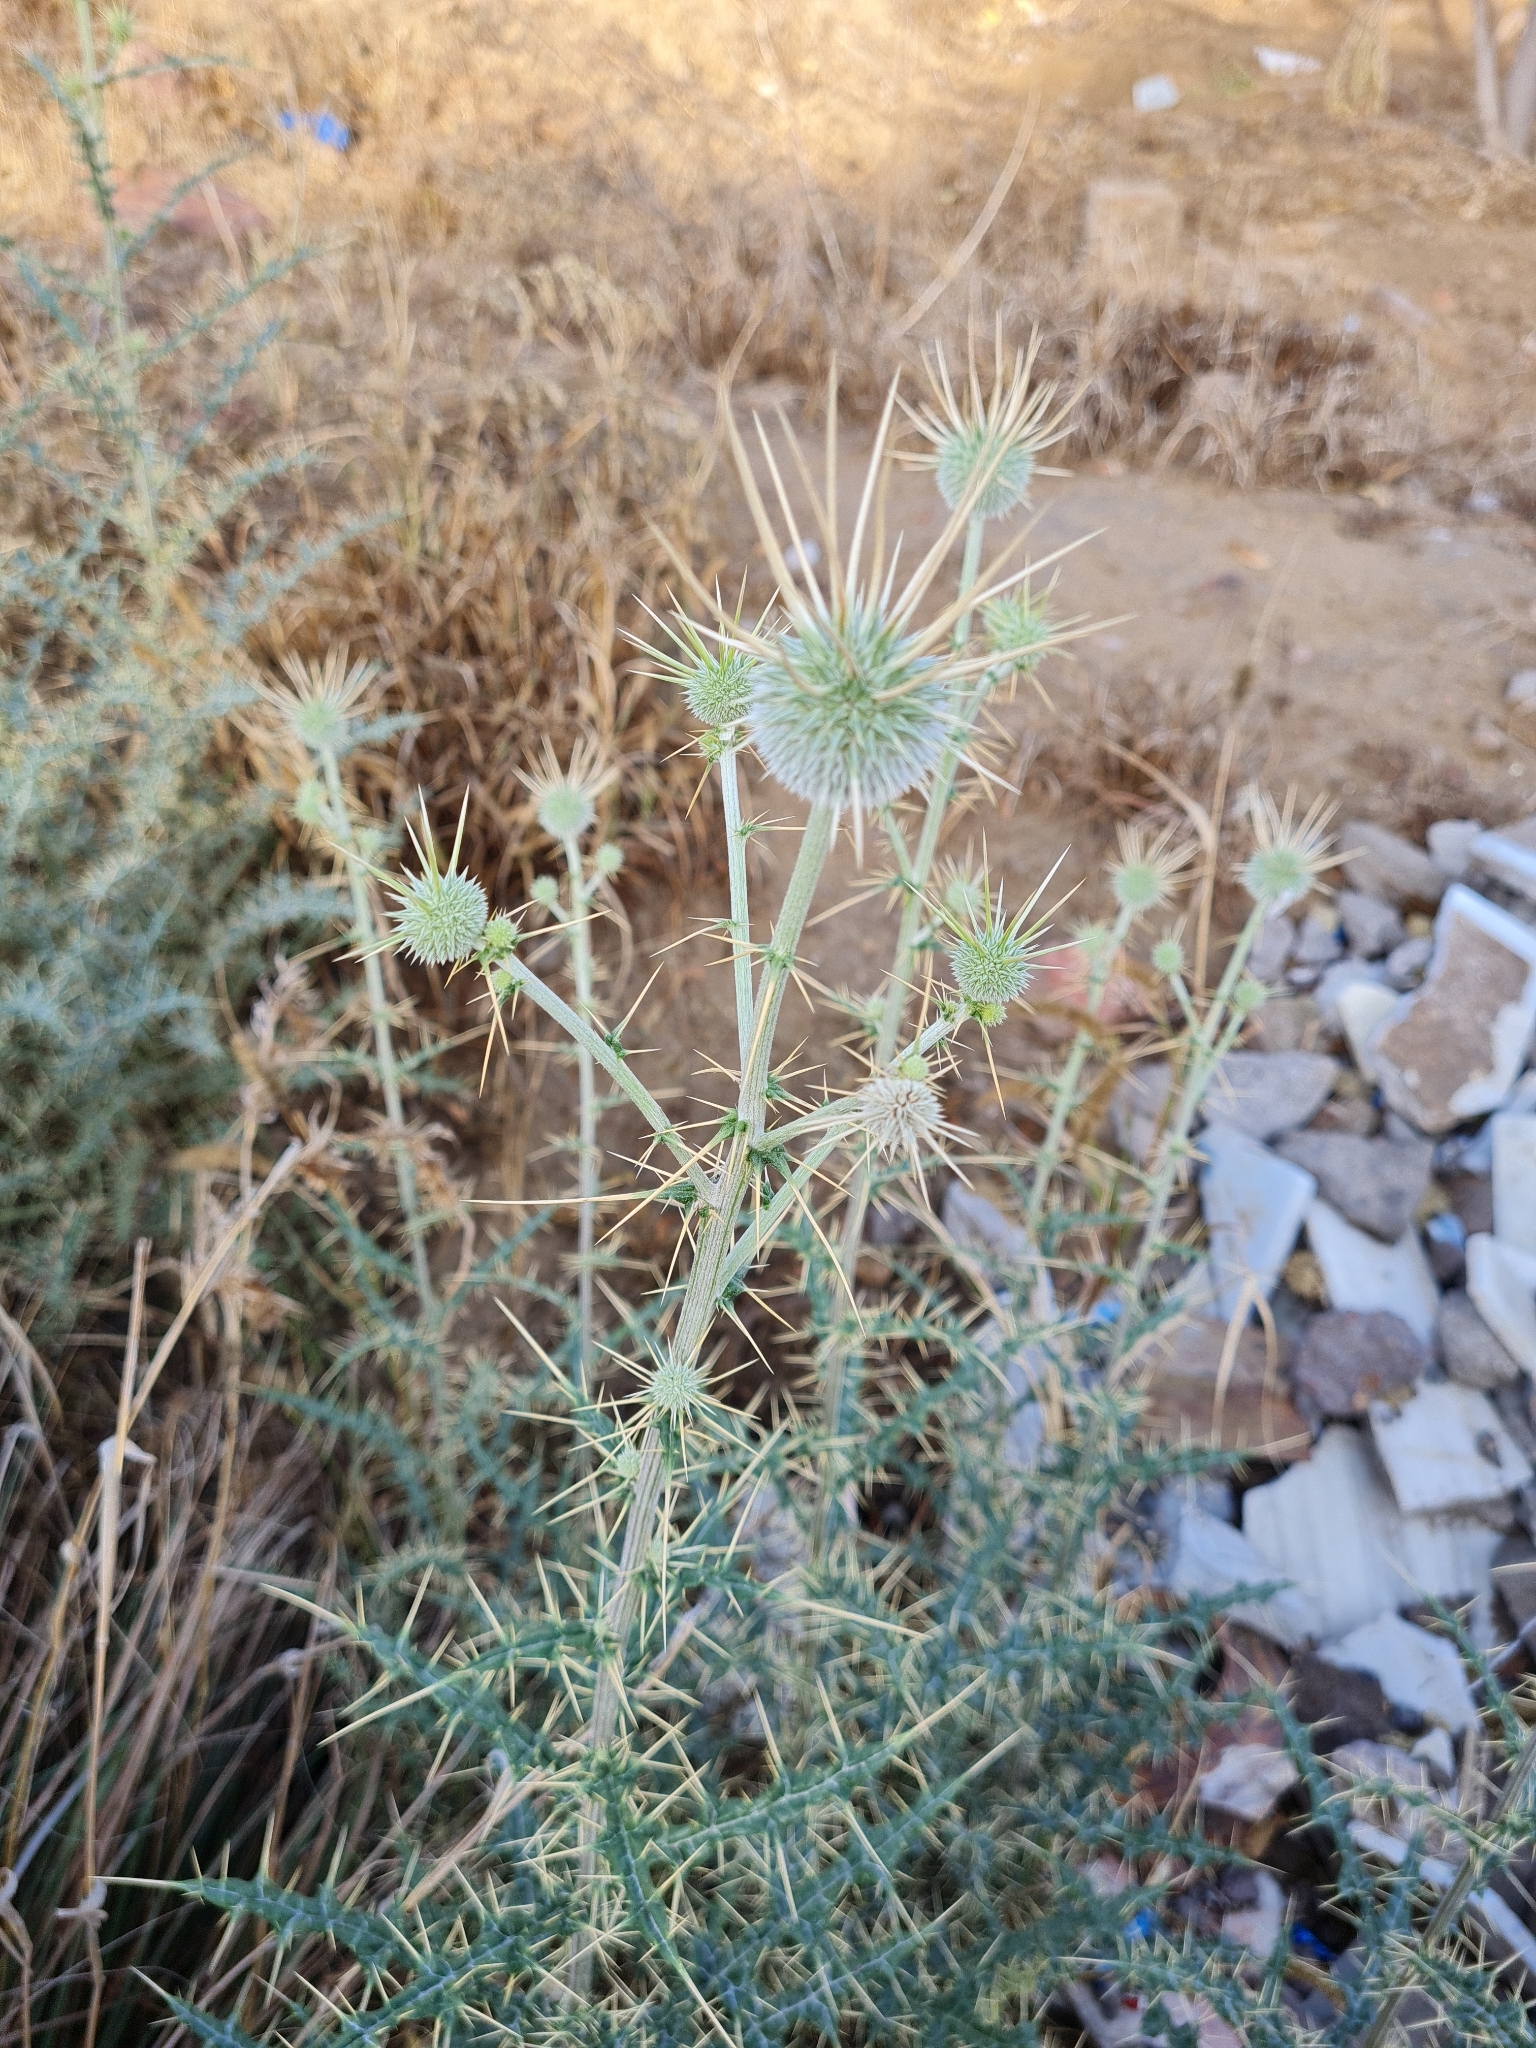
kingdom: Plantae
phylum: Tracheophyta
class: Magnoliopsida
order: Asterales
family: Asteraceae
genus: Echinops
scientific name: Echinops echinatus
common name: Indian globe thistle
